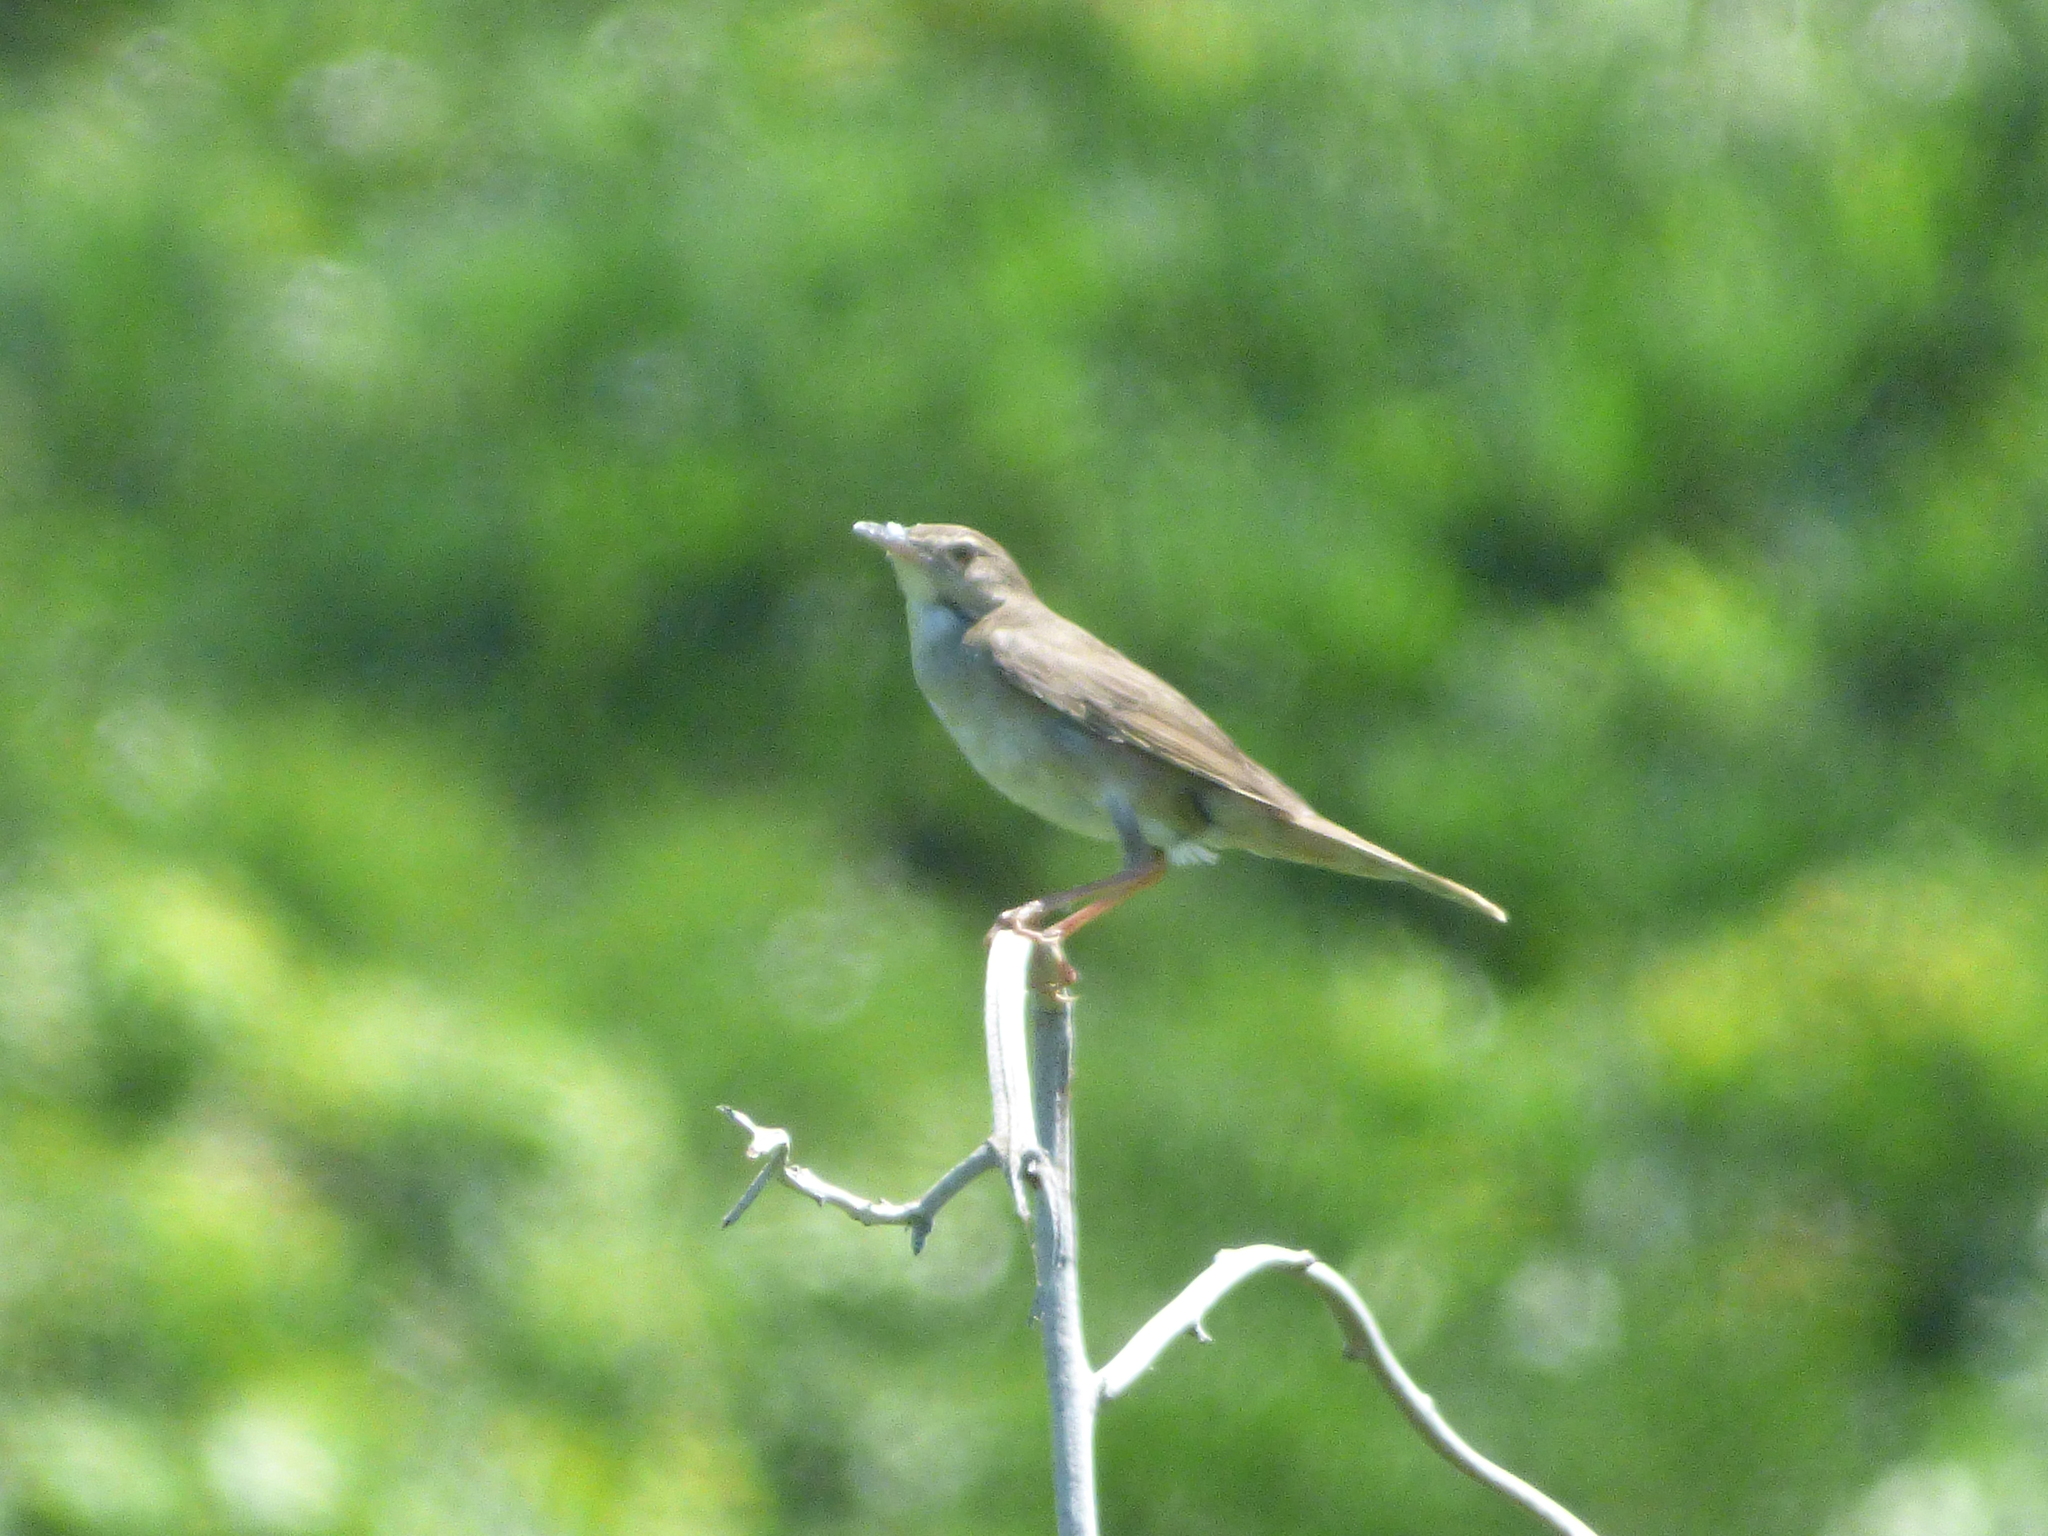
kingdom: Animalia
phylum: Chordata
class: Aves
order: Passeriformes
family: Locustellidae
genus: Locustella
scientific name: Locustella pleskei
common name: Styan's grasshopper warbler
